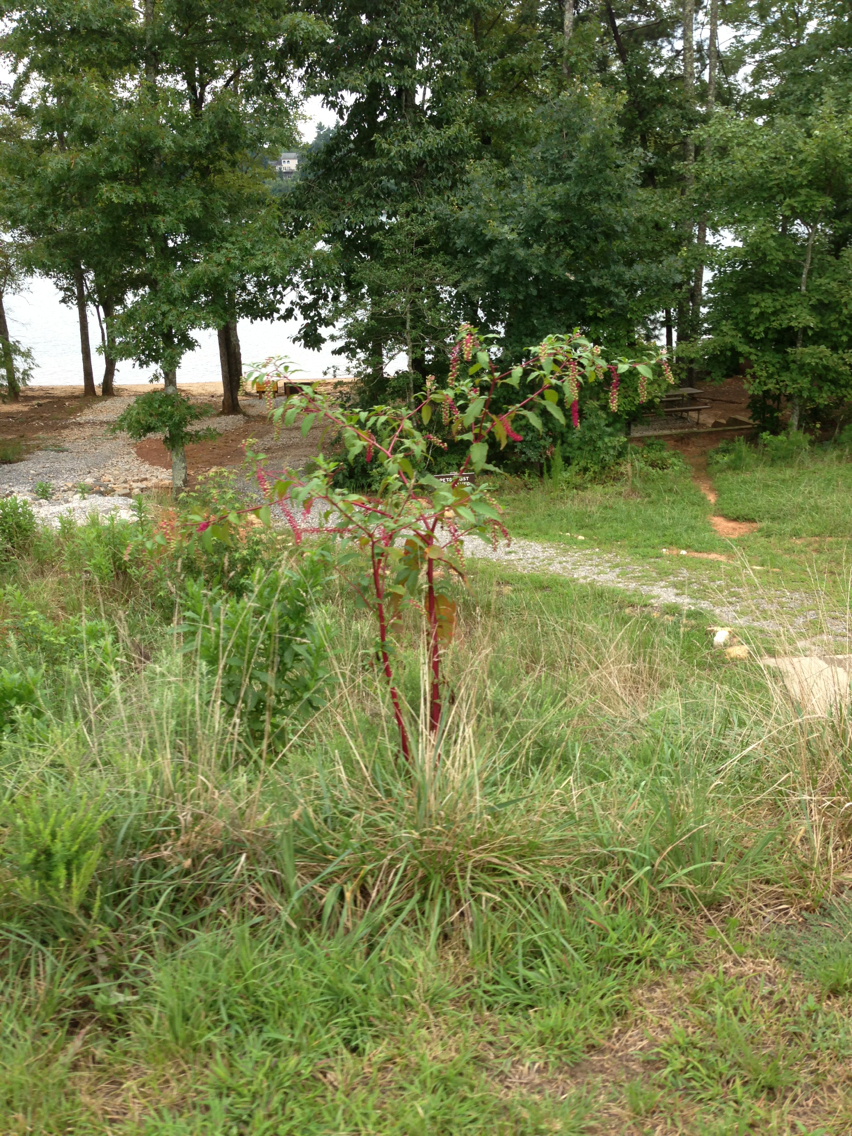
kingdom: Plantae
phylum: Tracheophyta
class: Magnoliopsida
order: Caryophyllales
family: Phytolaccaceae
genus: Phytolacca
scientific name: Phytolacca americana
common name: American pokeweed
